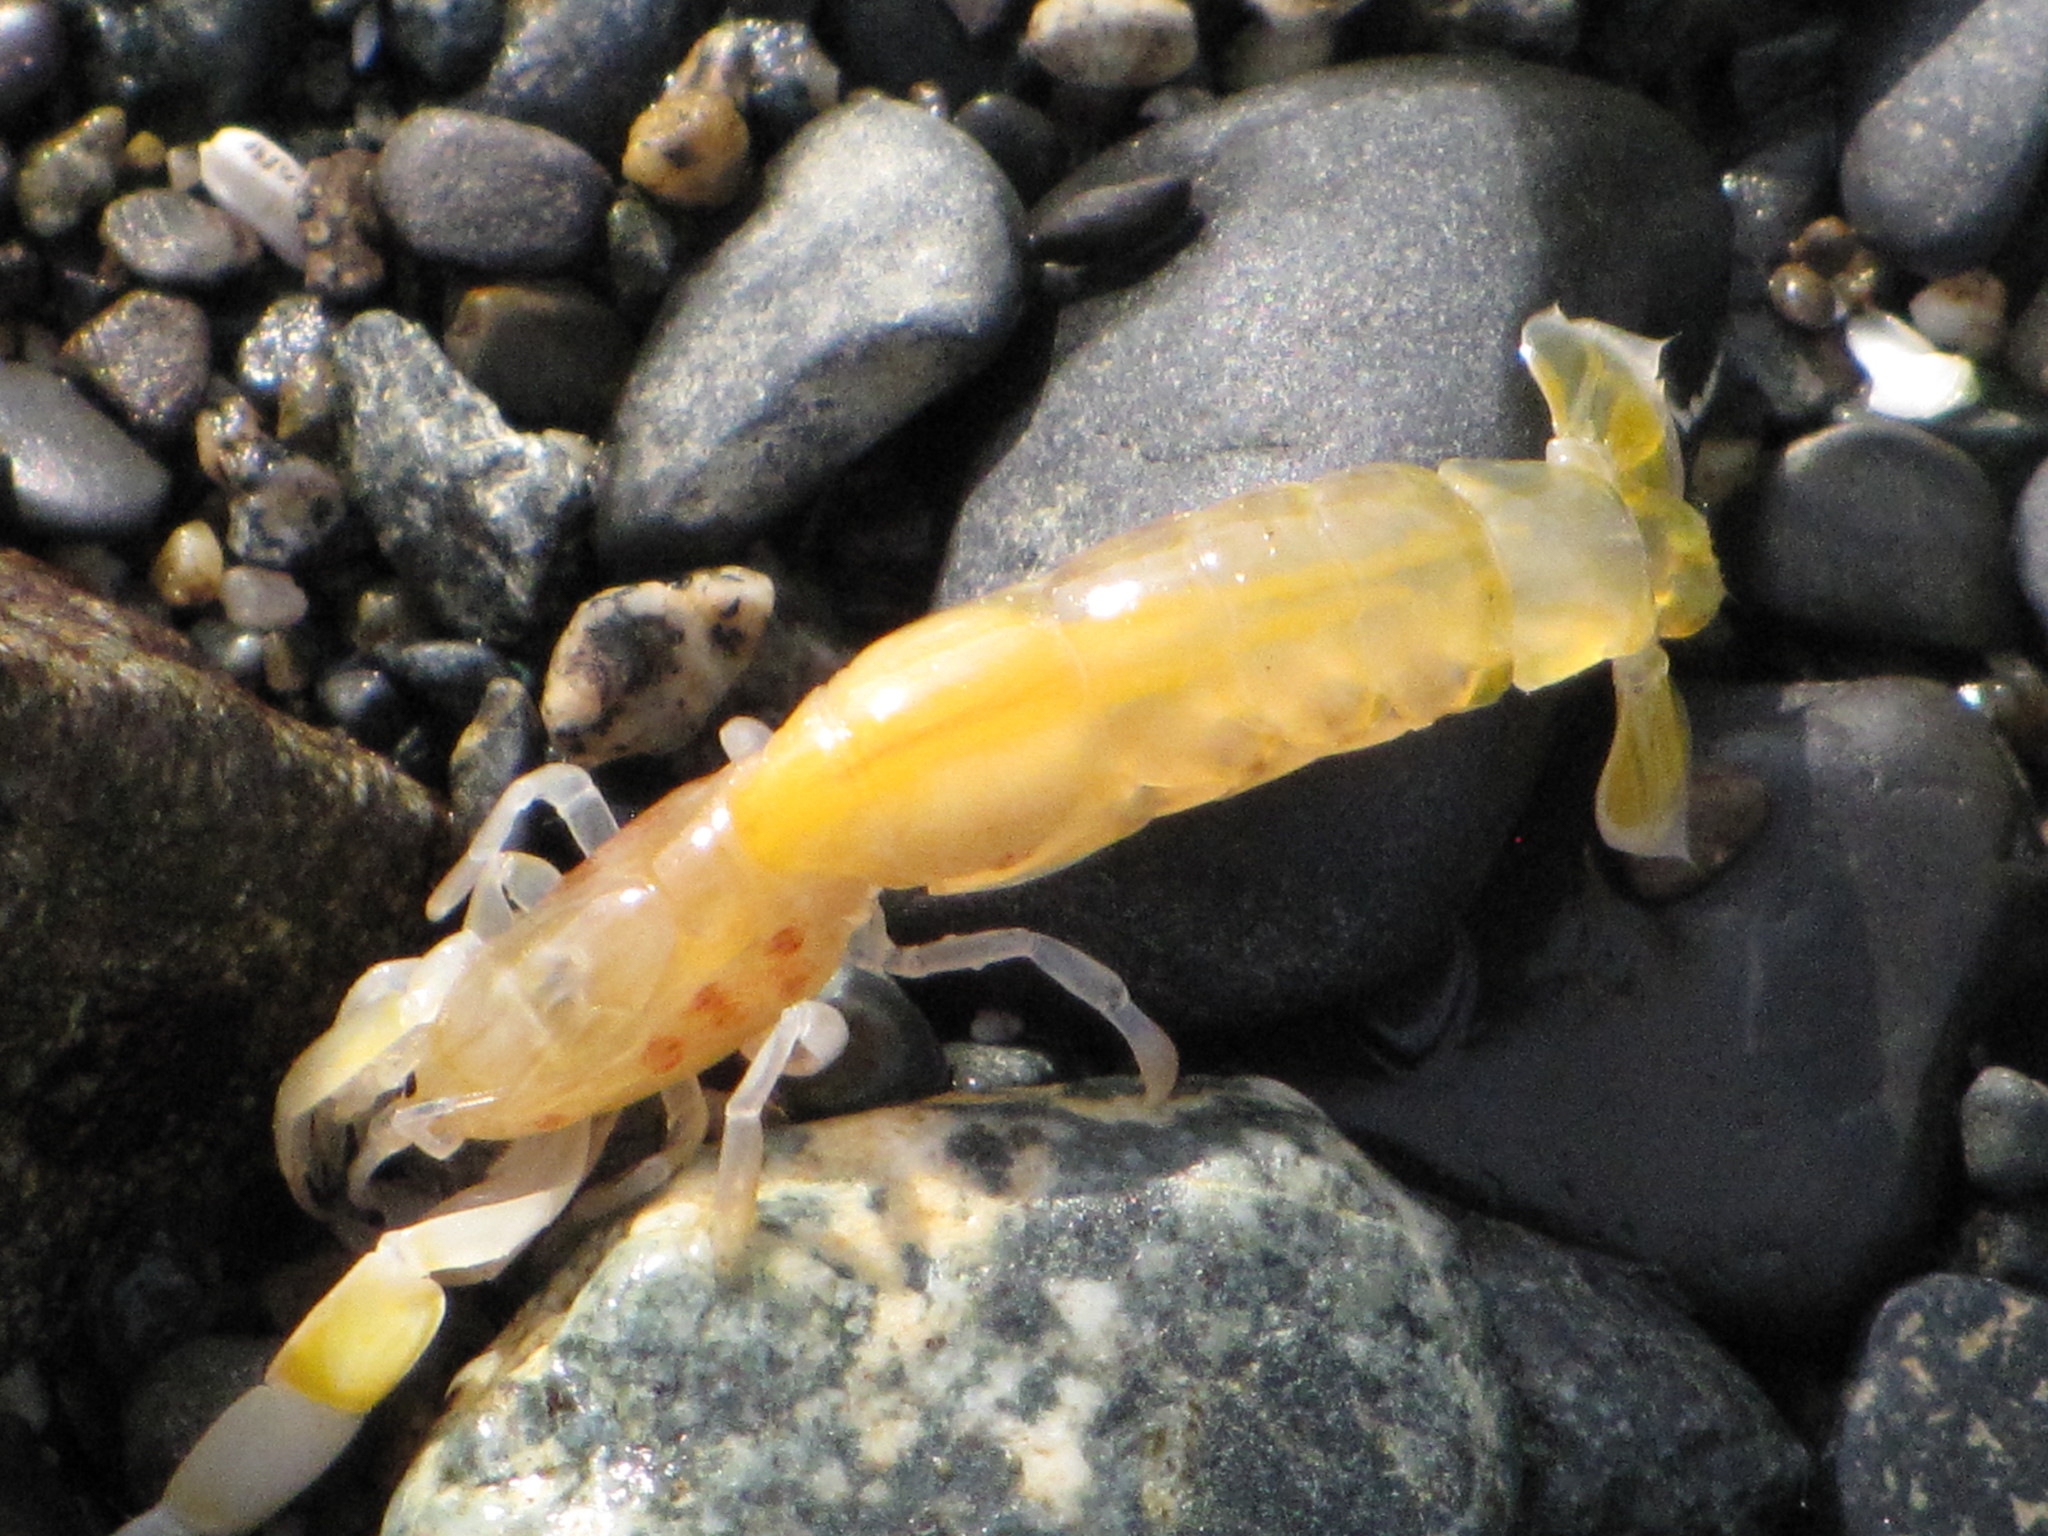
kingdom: Animalia
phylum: Arthropoda
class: Malacostraca
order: Decapoda
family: Callianassidae
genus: Neotrypaea
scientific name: Neotrypaea californiensis
